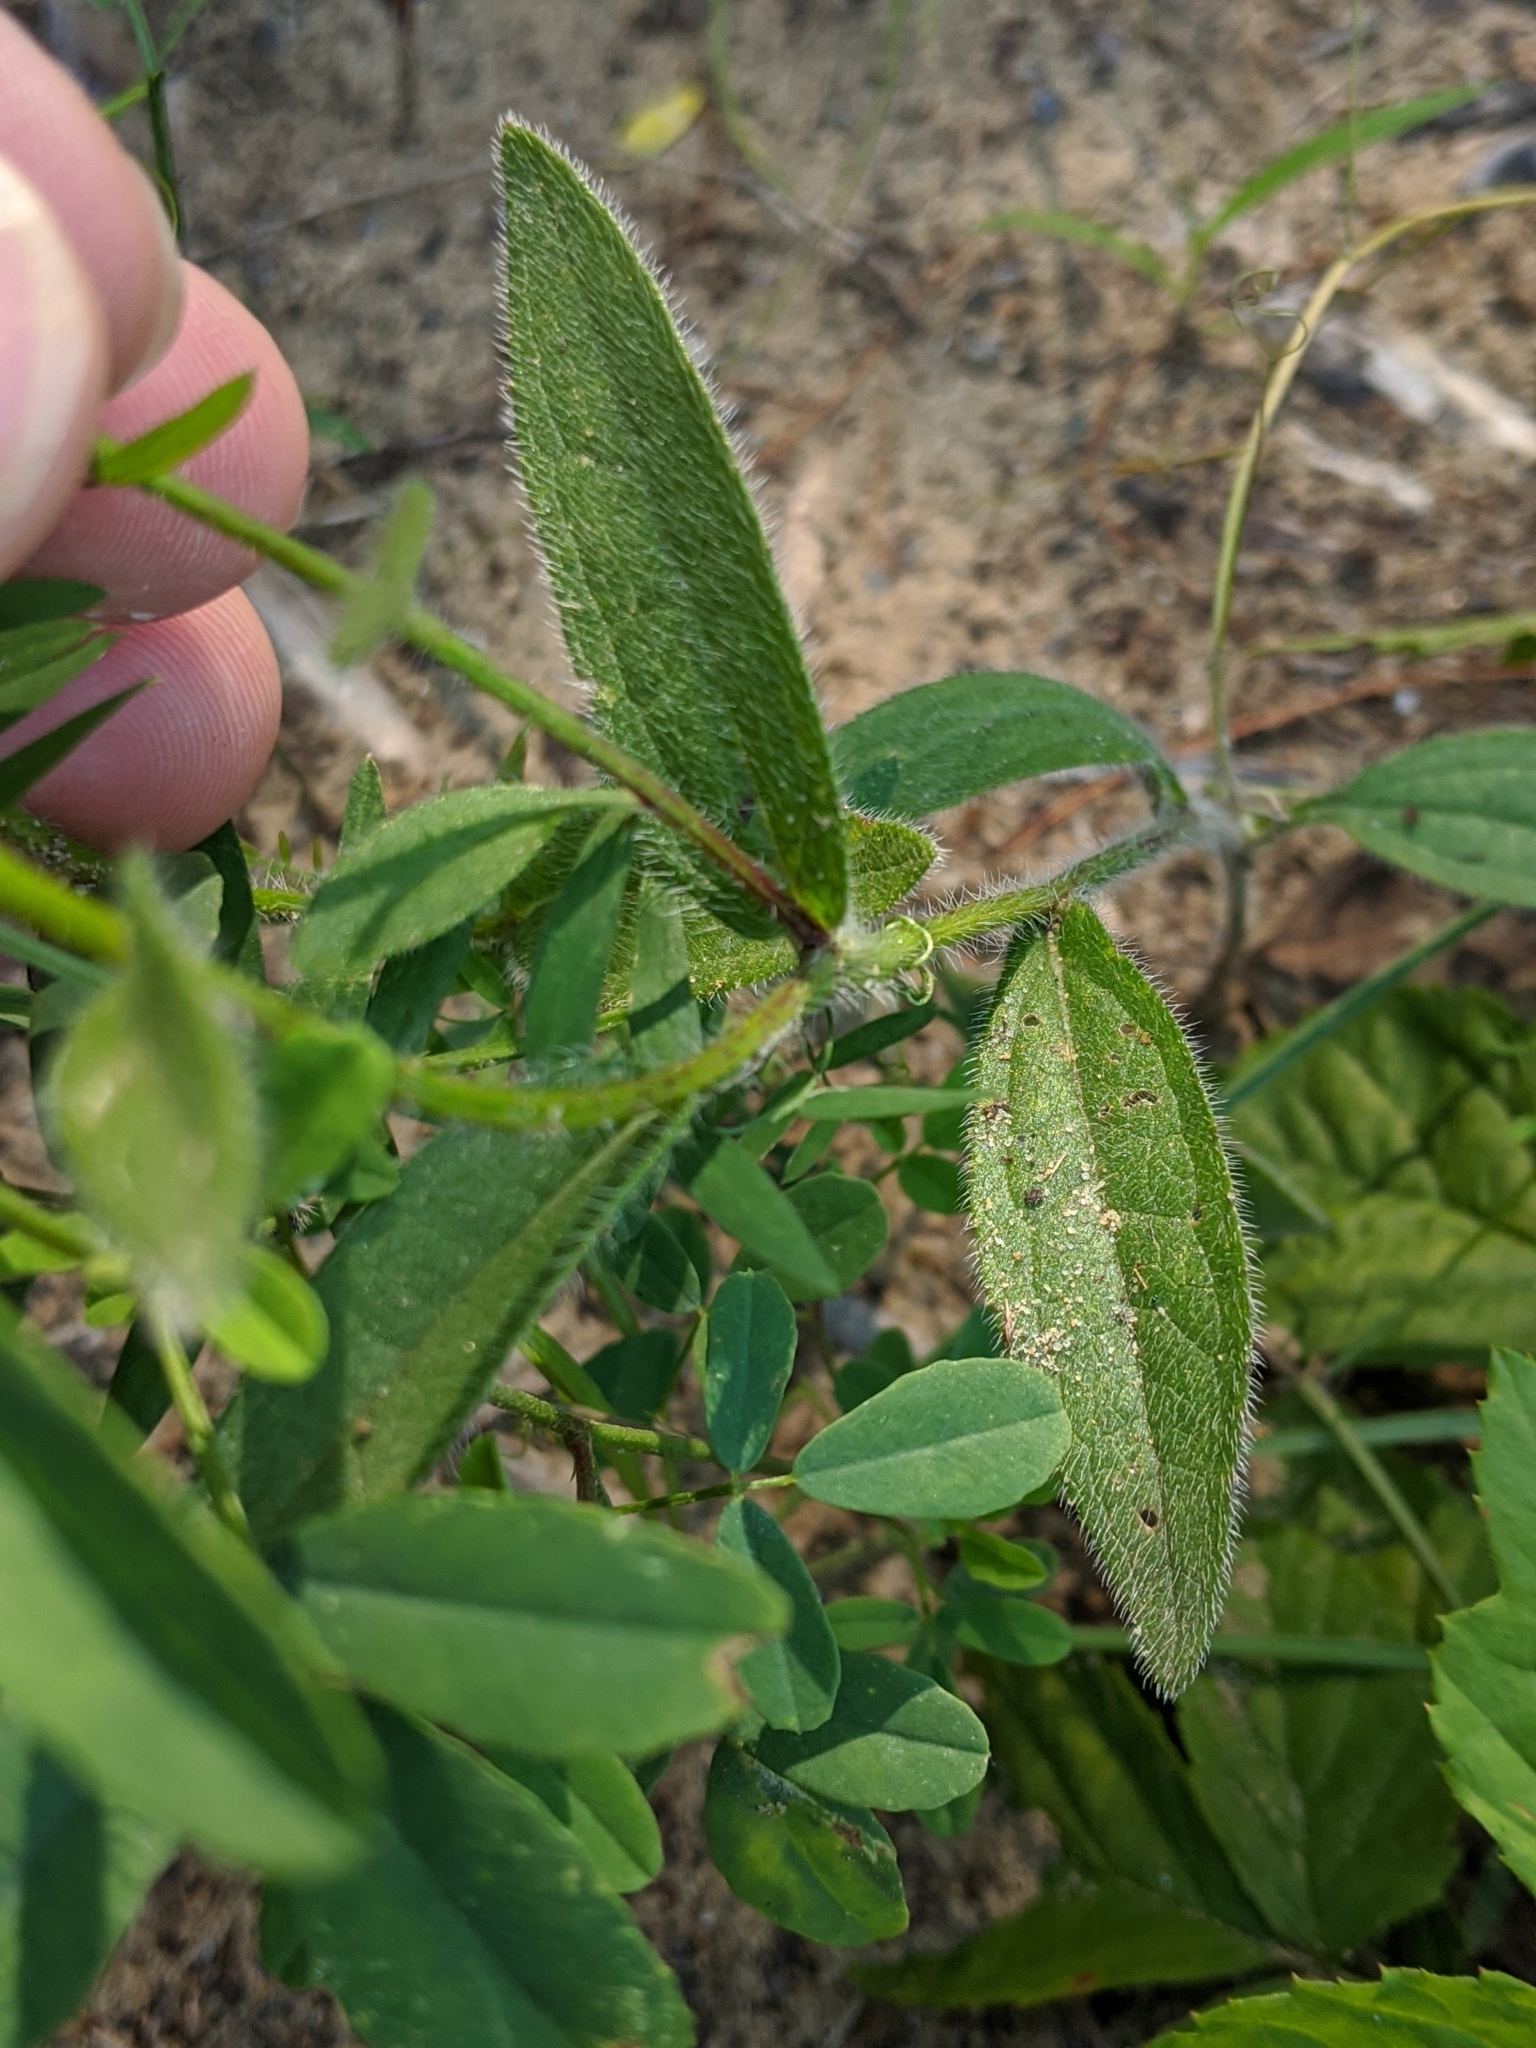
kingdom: Plantae
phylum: Tracheophyta
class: Magnoliopsida
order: Asterales
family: Asteraceae
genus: Rudbeckia
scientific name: Rudbeckia hirta
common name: Black-eyed-susan
